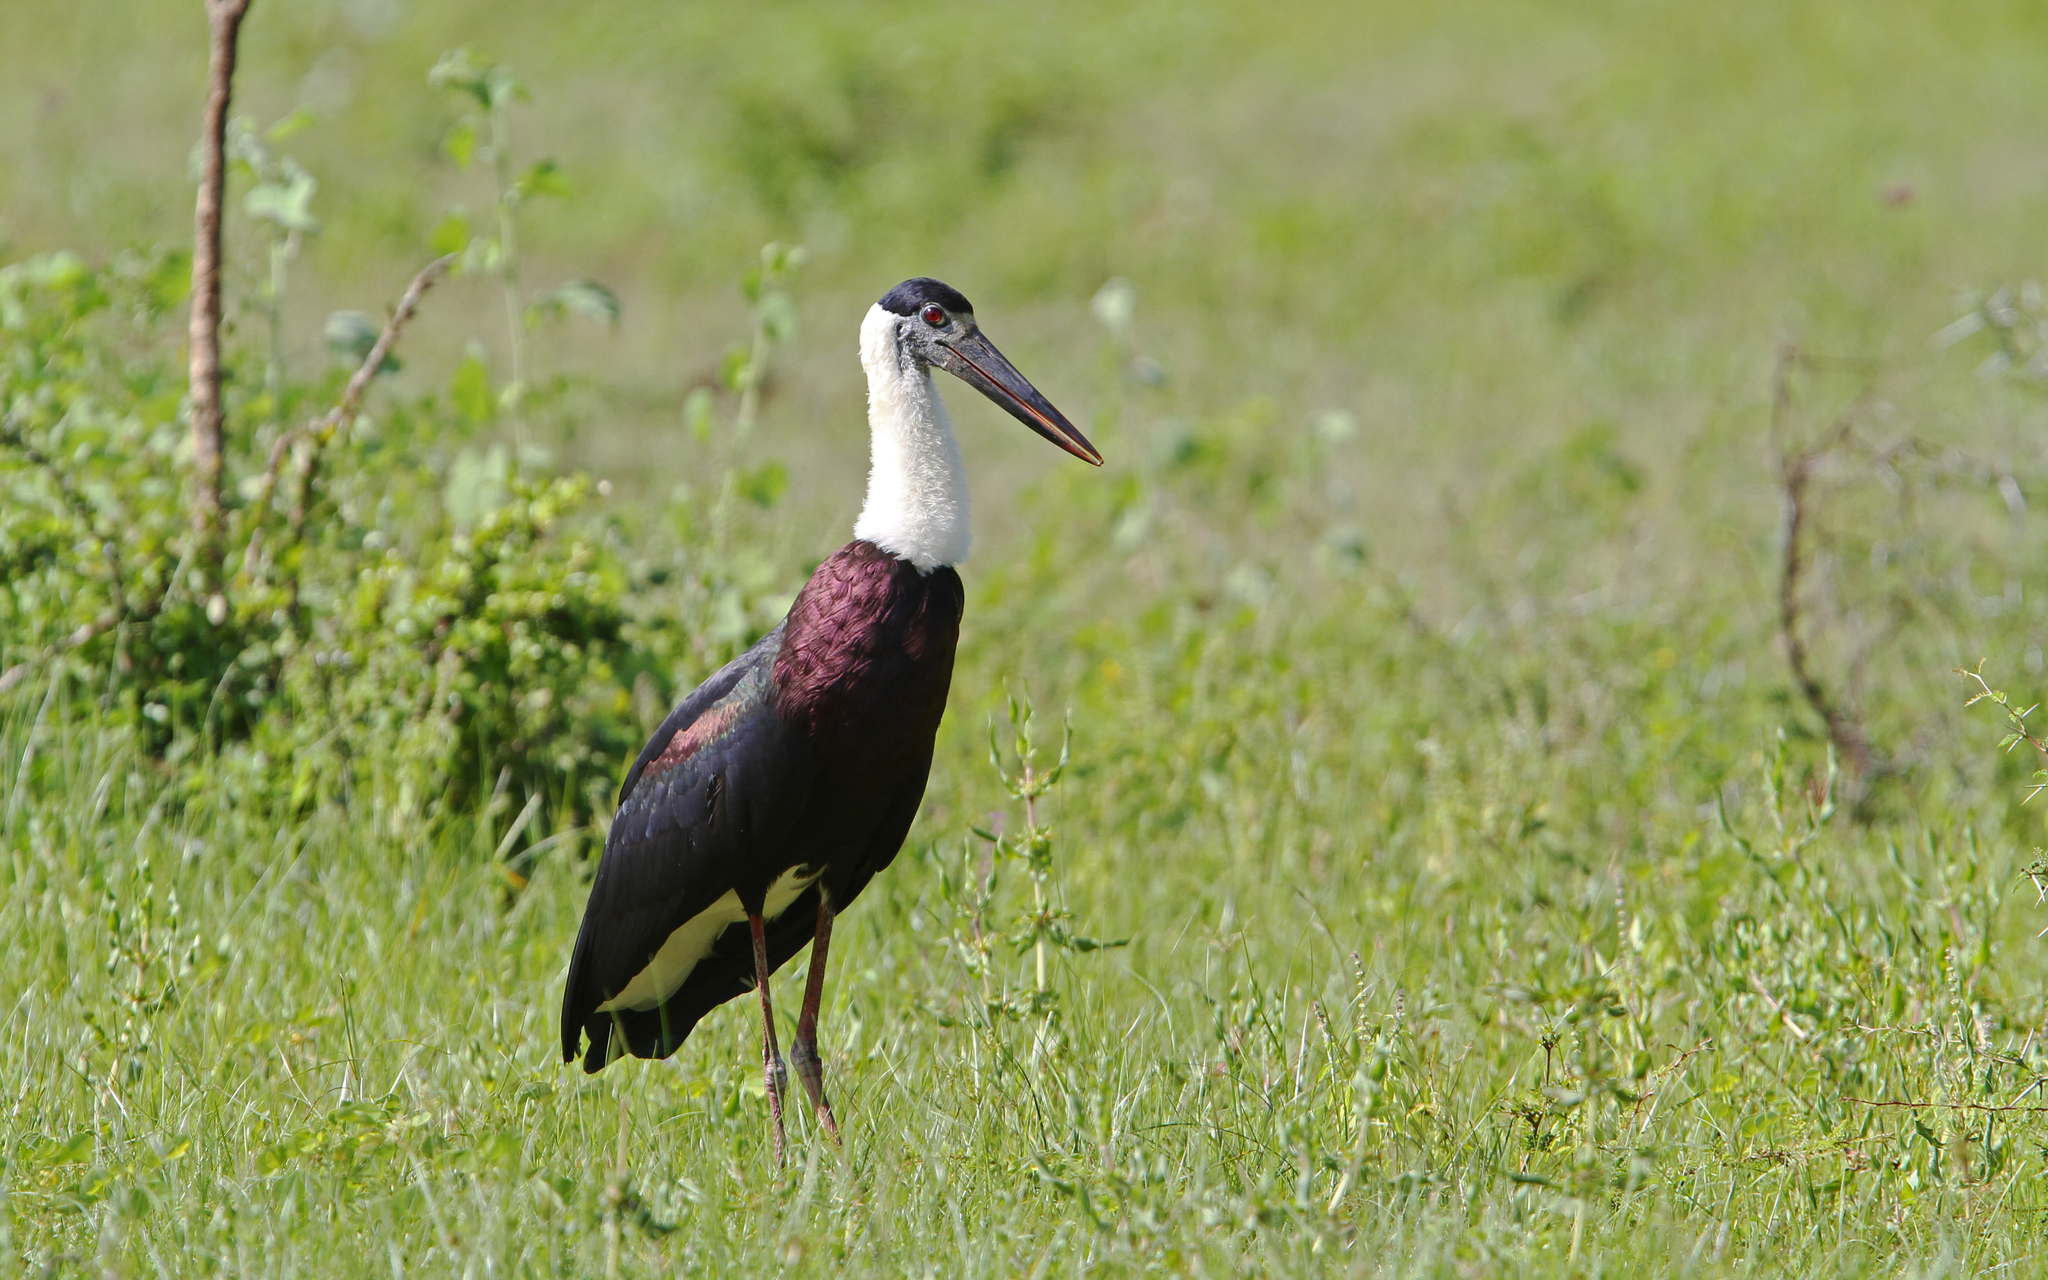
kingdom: Animalia
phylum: Chordata
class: Aves
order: Ciconiiformes
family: Ciconiidae
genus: Ciconia
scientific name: Ciconia episcopus
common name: Woolly-necked stork
